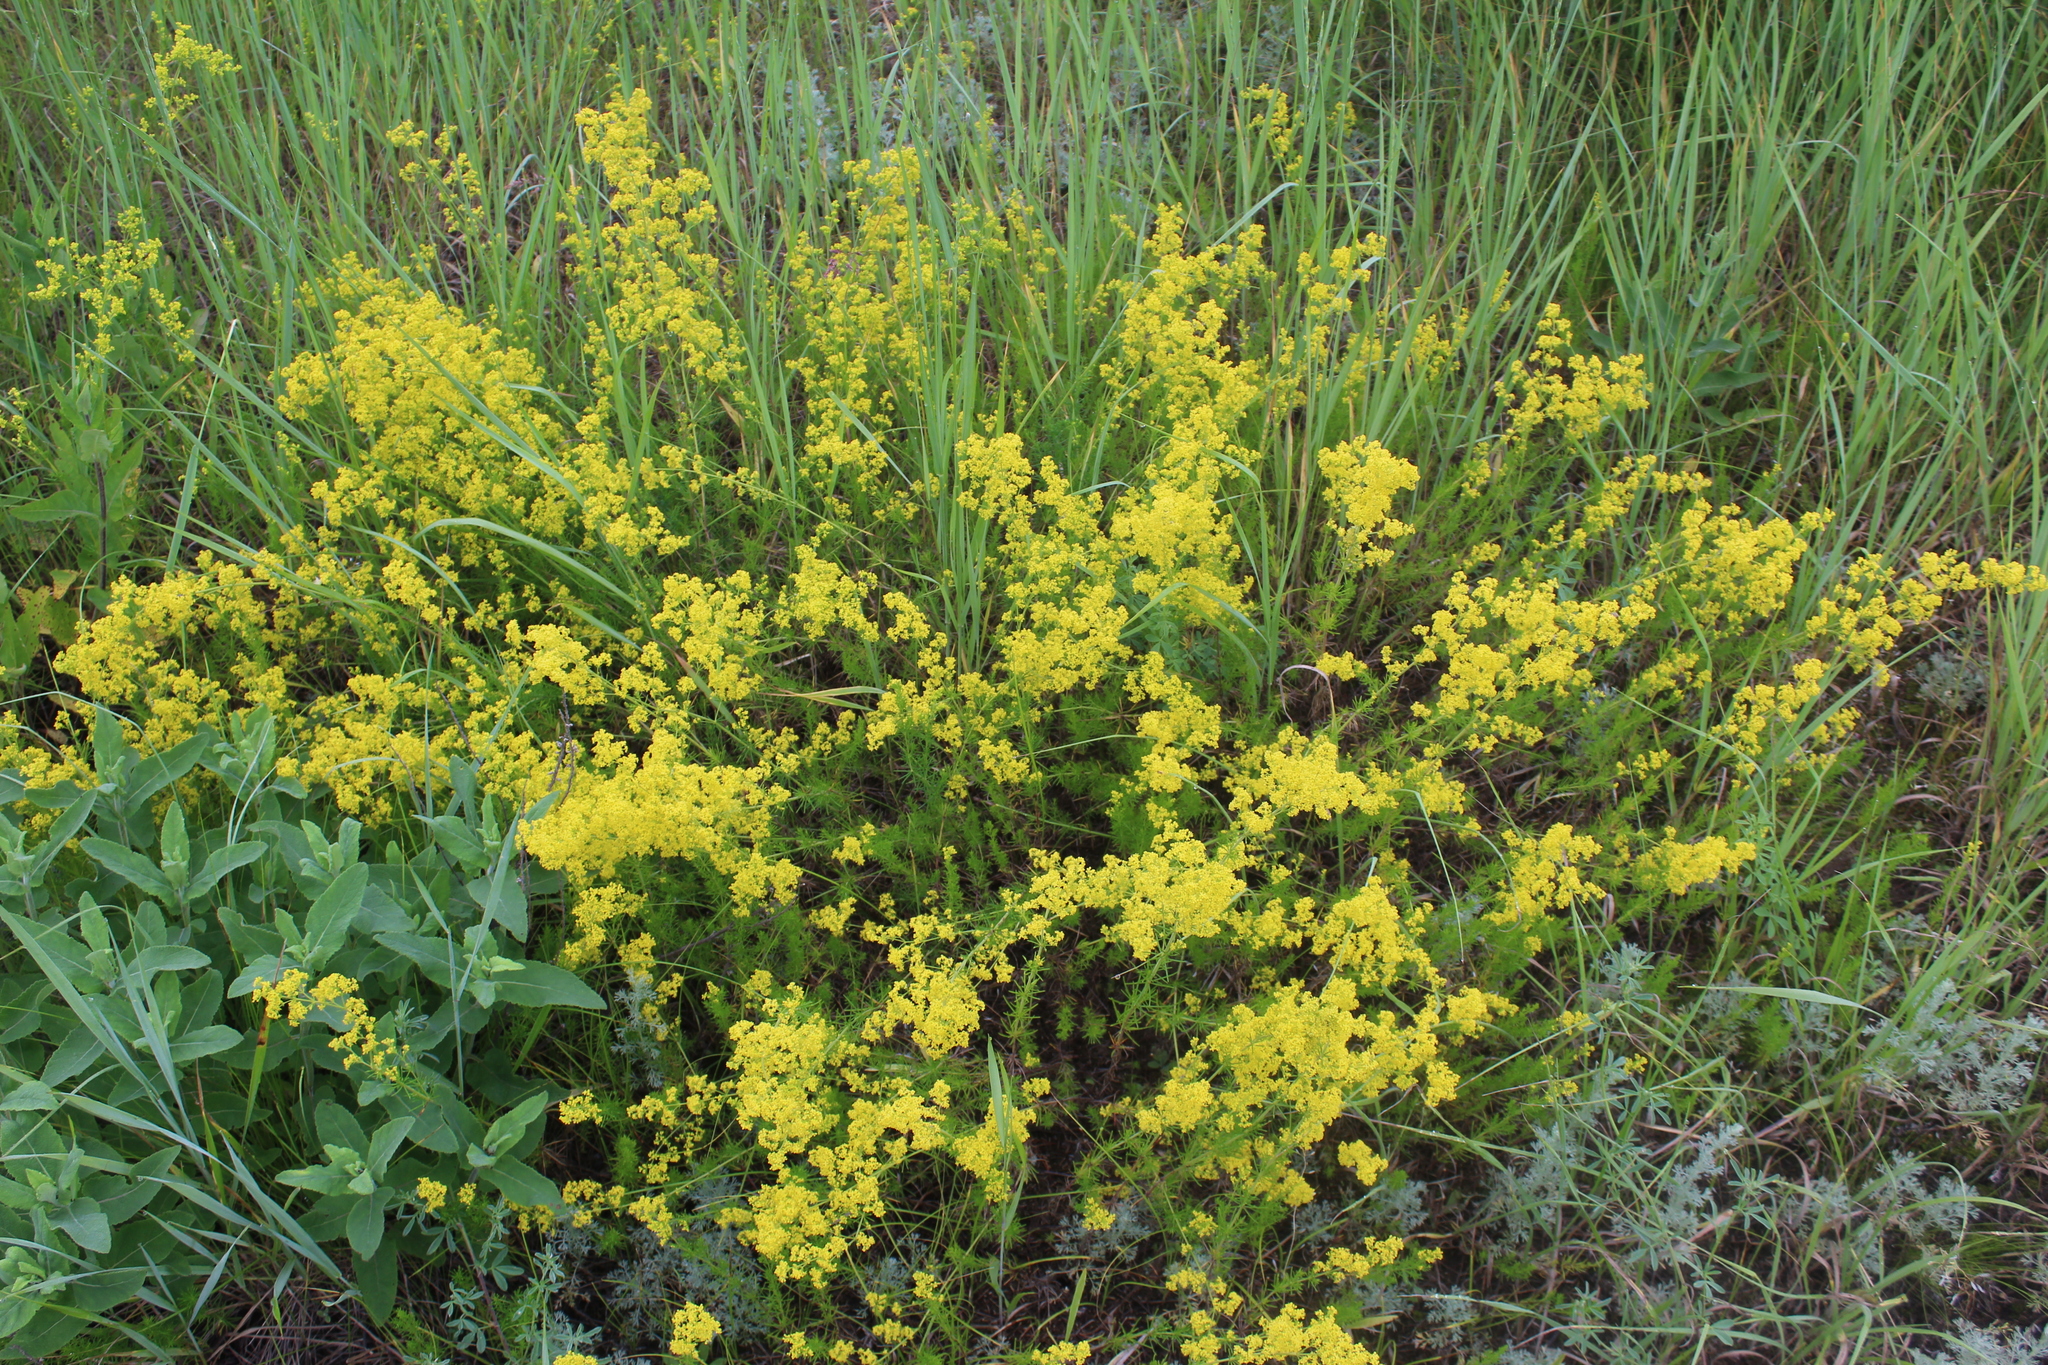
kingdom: Plantae
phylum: Tracheophyta
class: Magnoliopsida
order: Gentianales
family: Rubiaceae
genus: Galium
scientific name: Galium verum
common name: Lady's bedstraw
